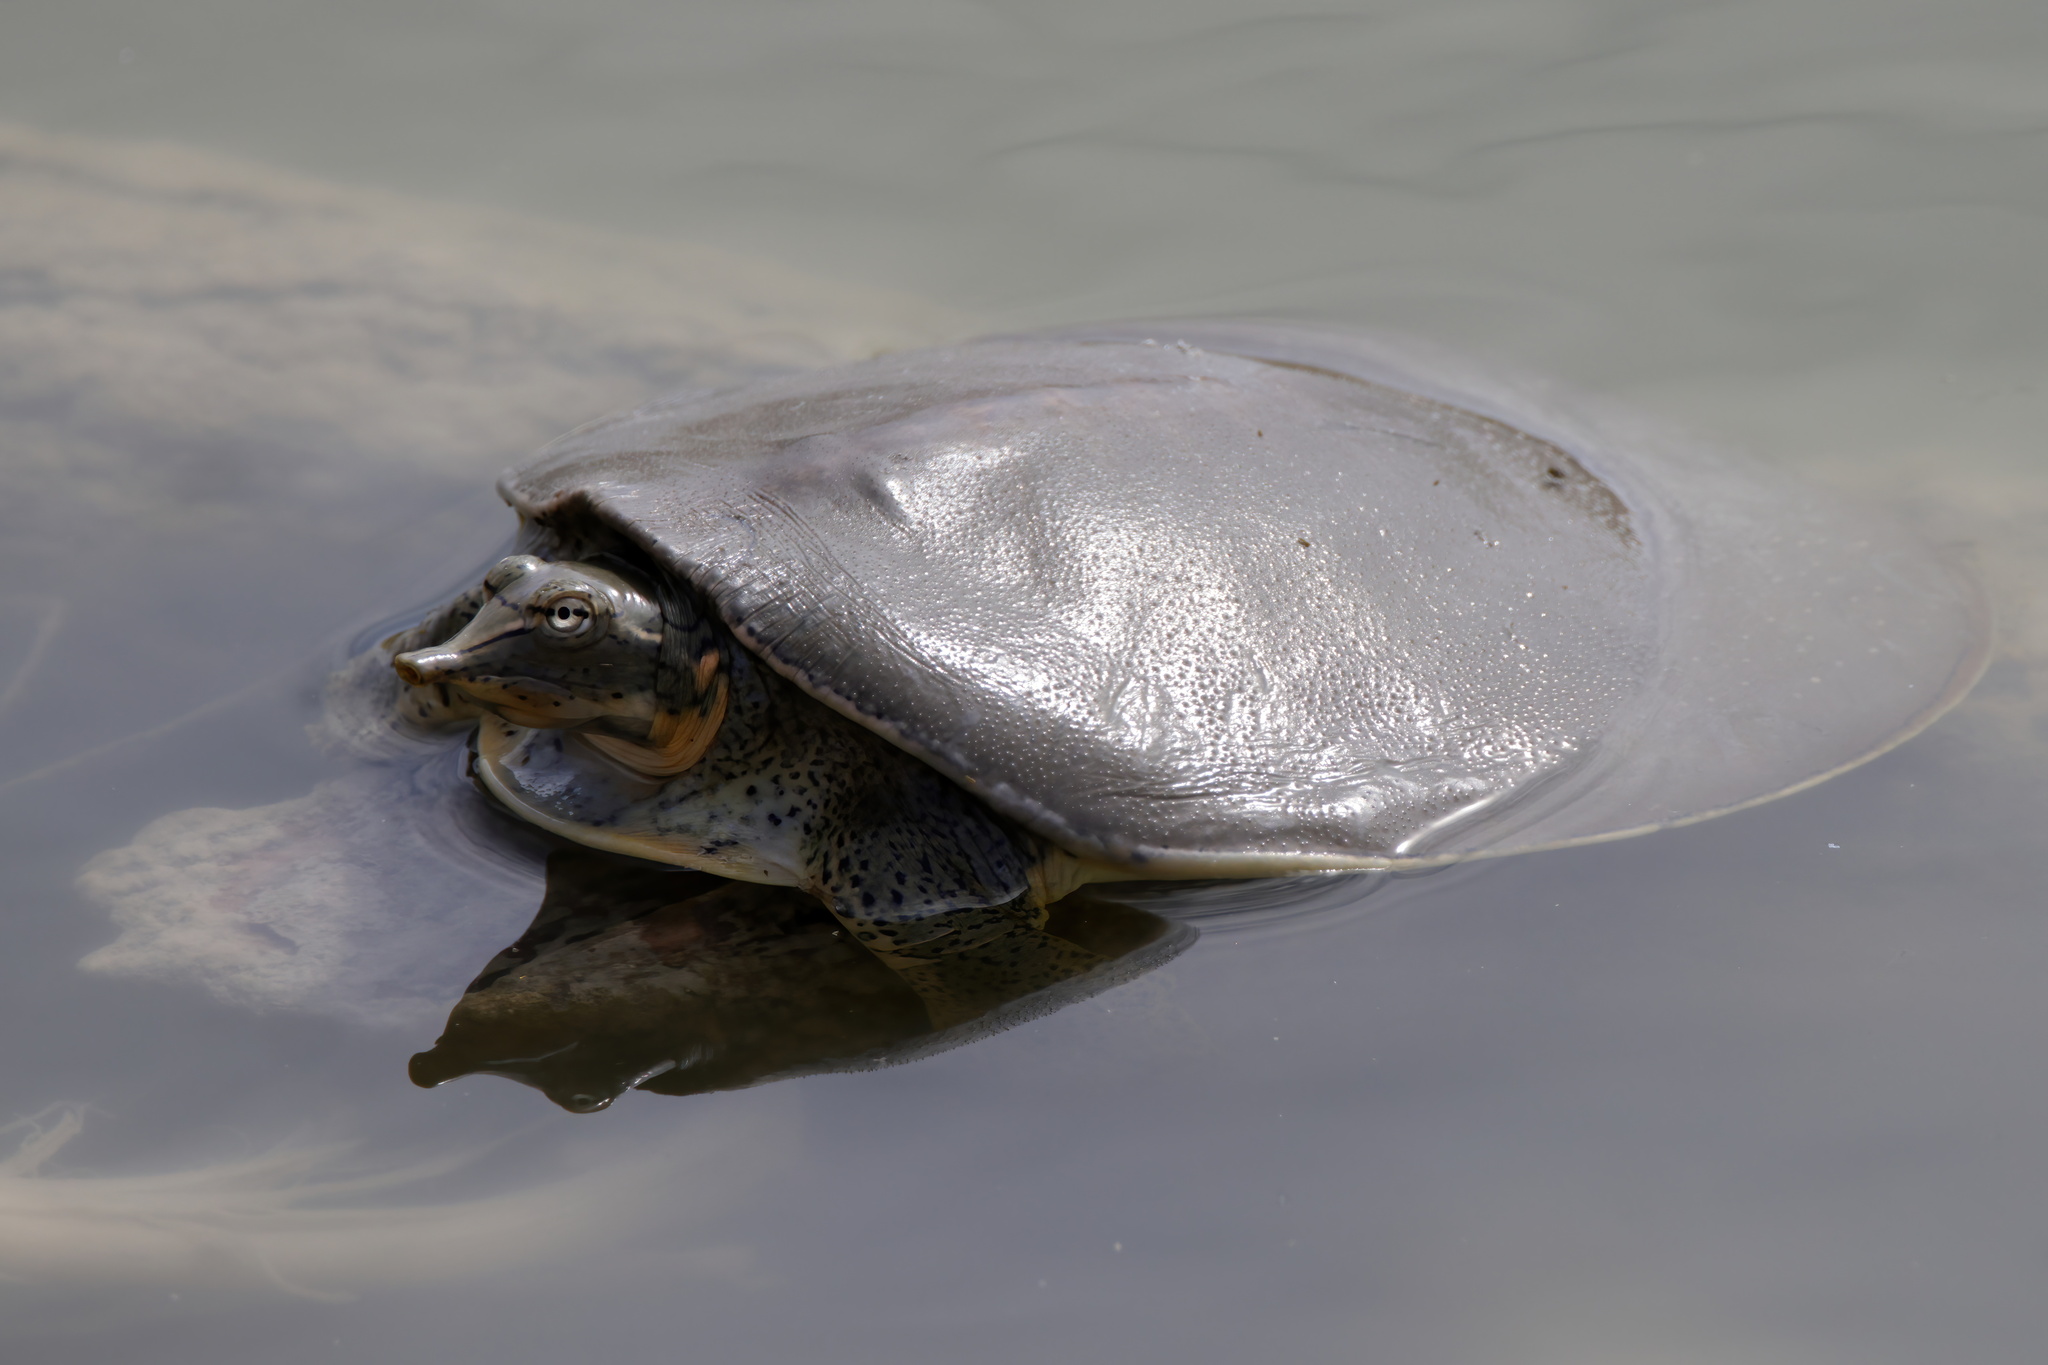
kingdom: Animalia
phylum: Chordata
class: Testudines
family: Trionychidae
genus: Apalone
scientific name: Apalone spinifera
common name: Spiny softshell turtle
